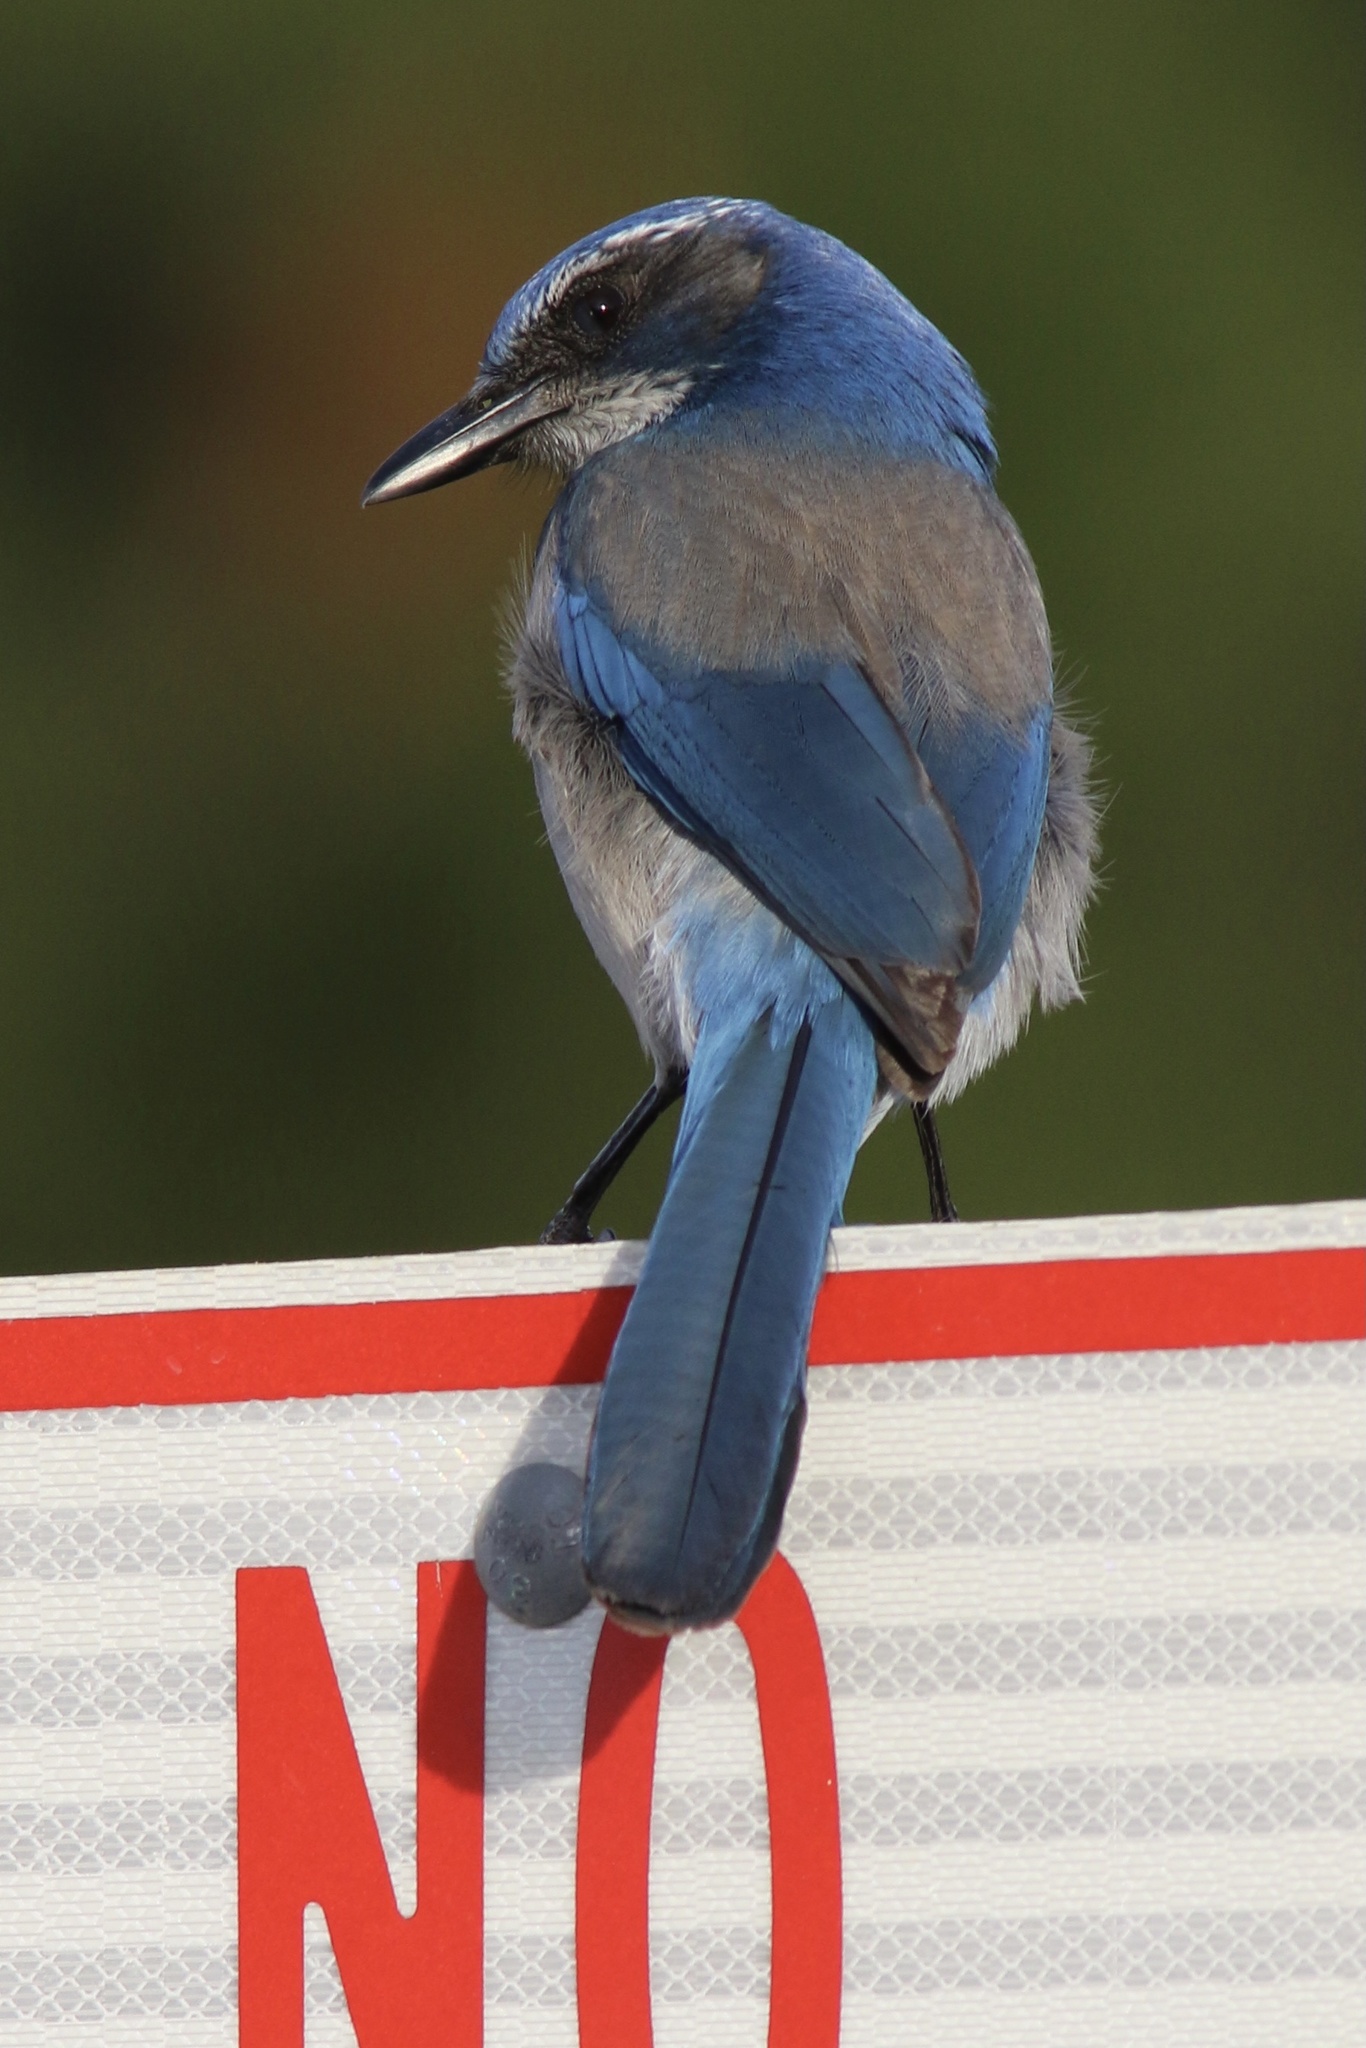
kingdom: Animalia
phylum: Chordata
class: Aves
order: Passeriformes
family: Corvidae
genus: Aphelocoma
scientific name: Aphelocoma californica
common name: California scrub-jay
